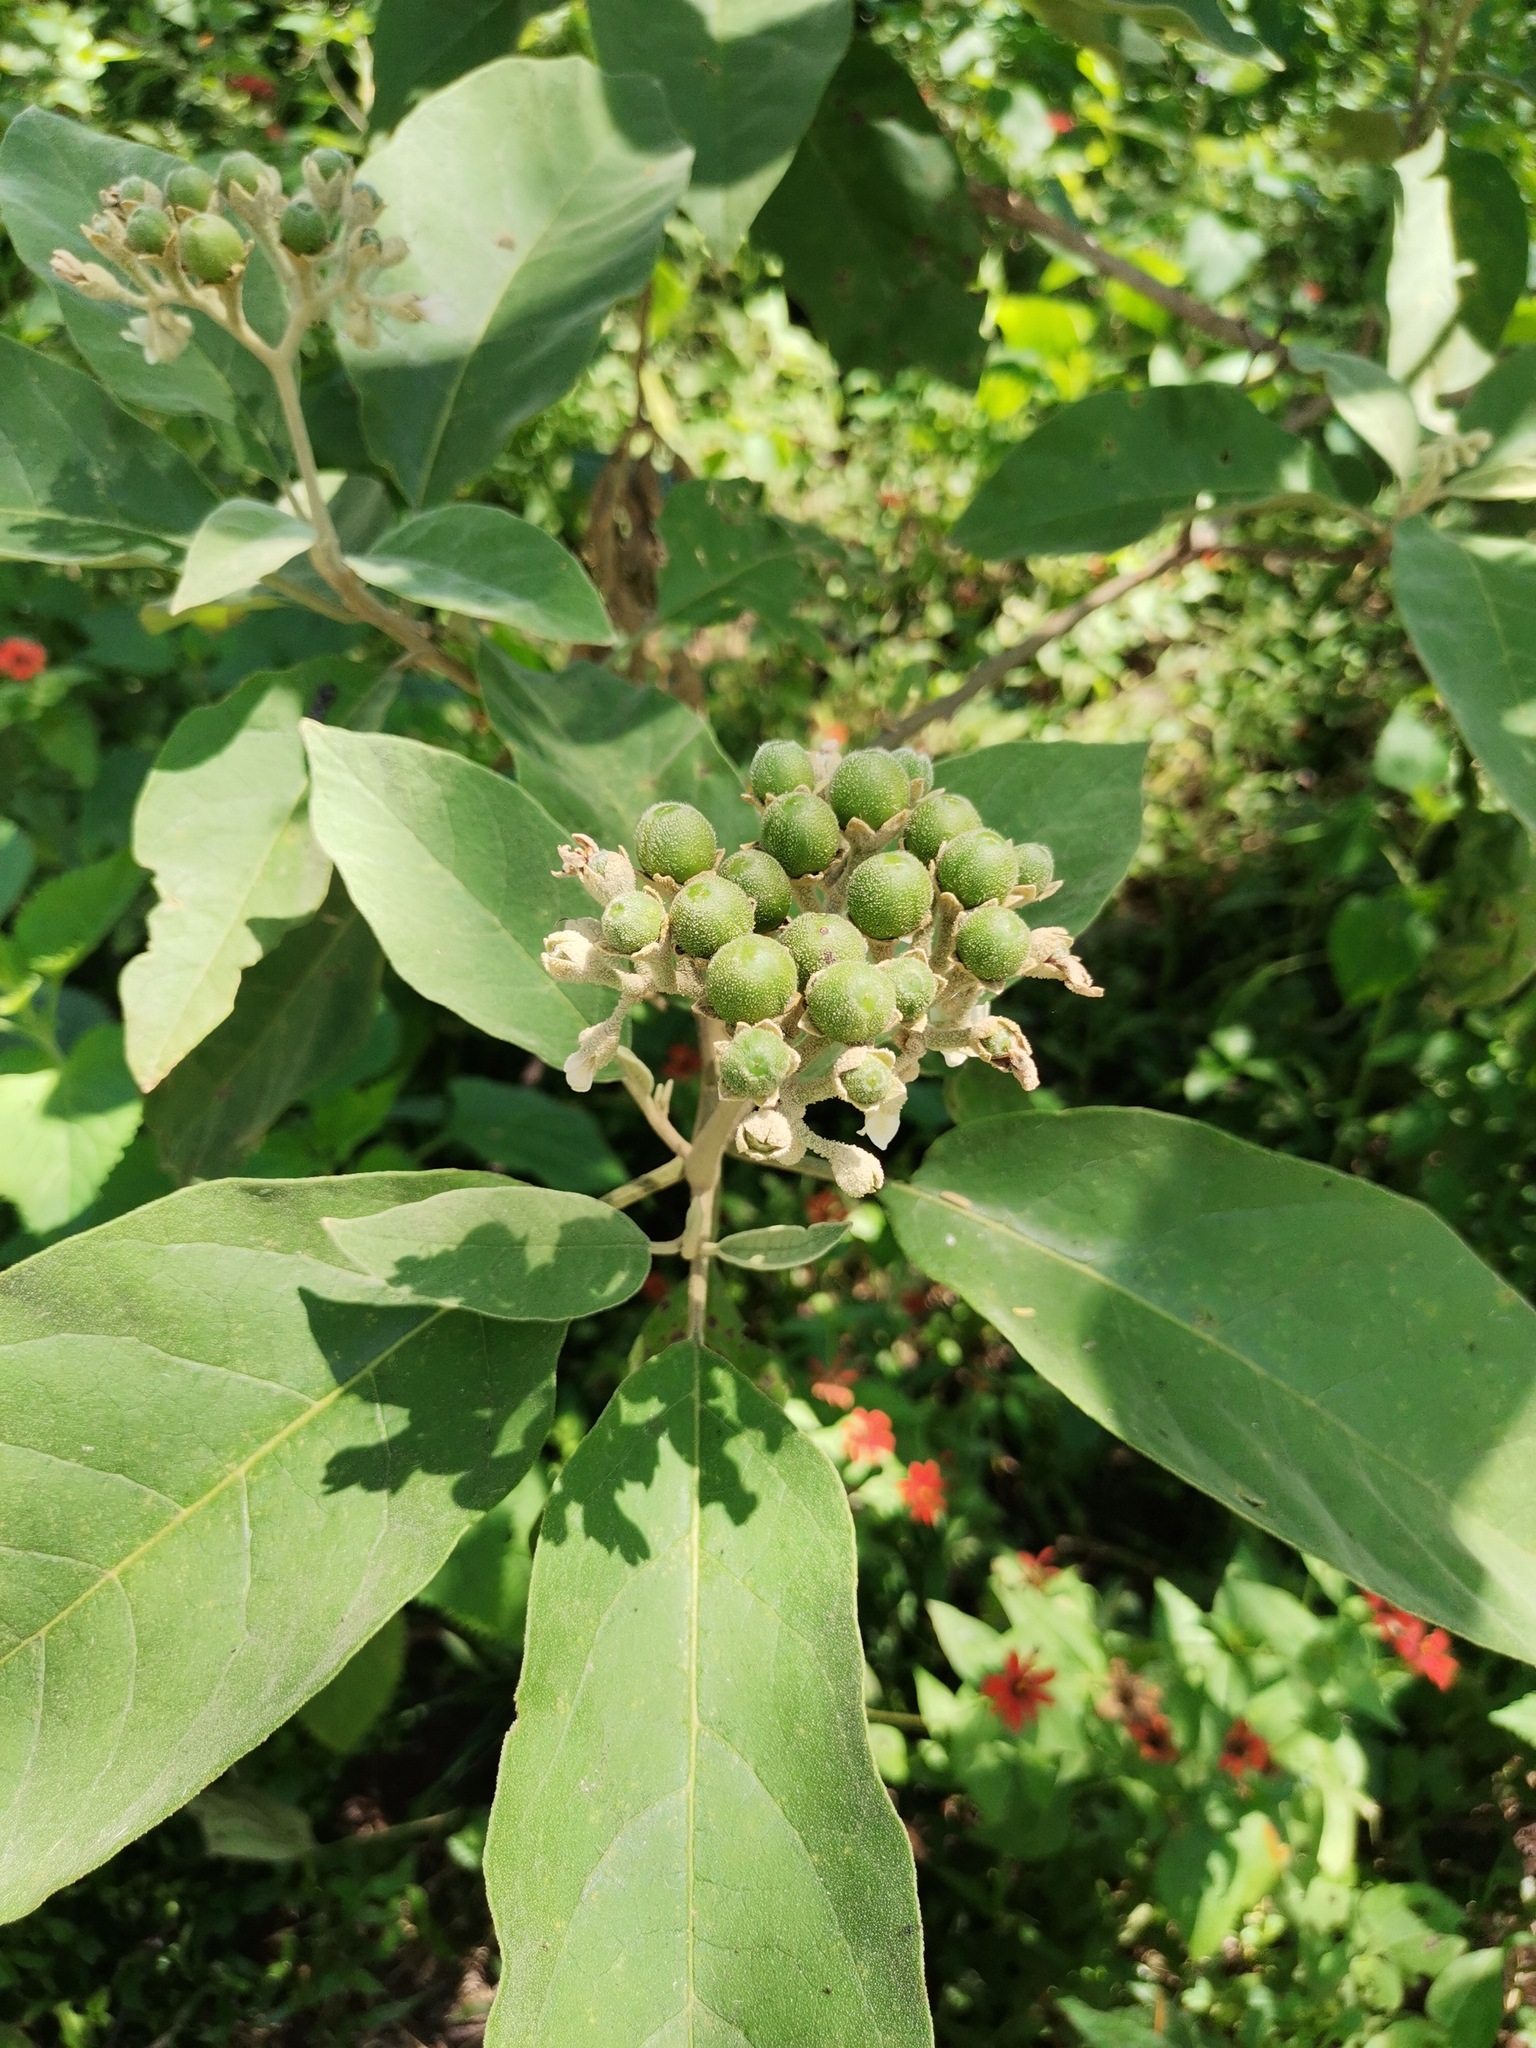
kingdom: Plantae
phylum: Tracheophyta
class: Magnoliopsida
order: Solanales
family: Solanaceae
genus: Solanum
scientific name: Solanum erianthum
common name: Tobacco-tree
